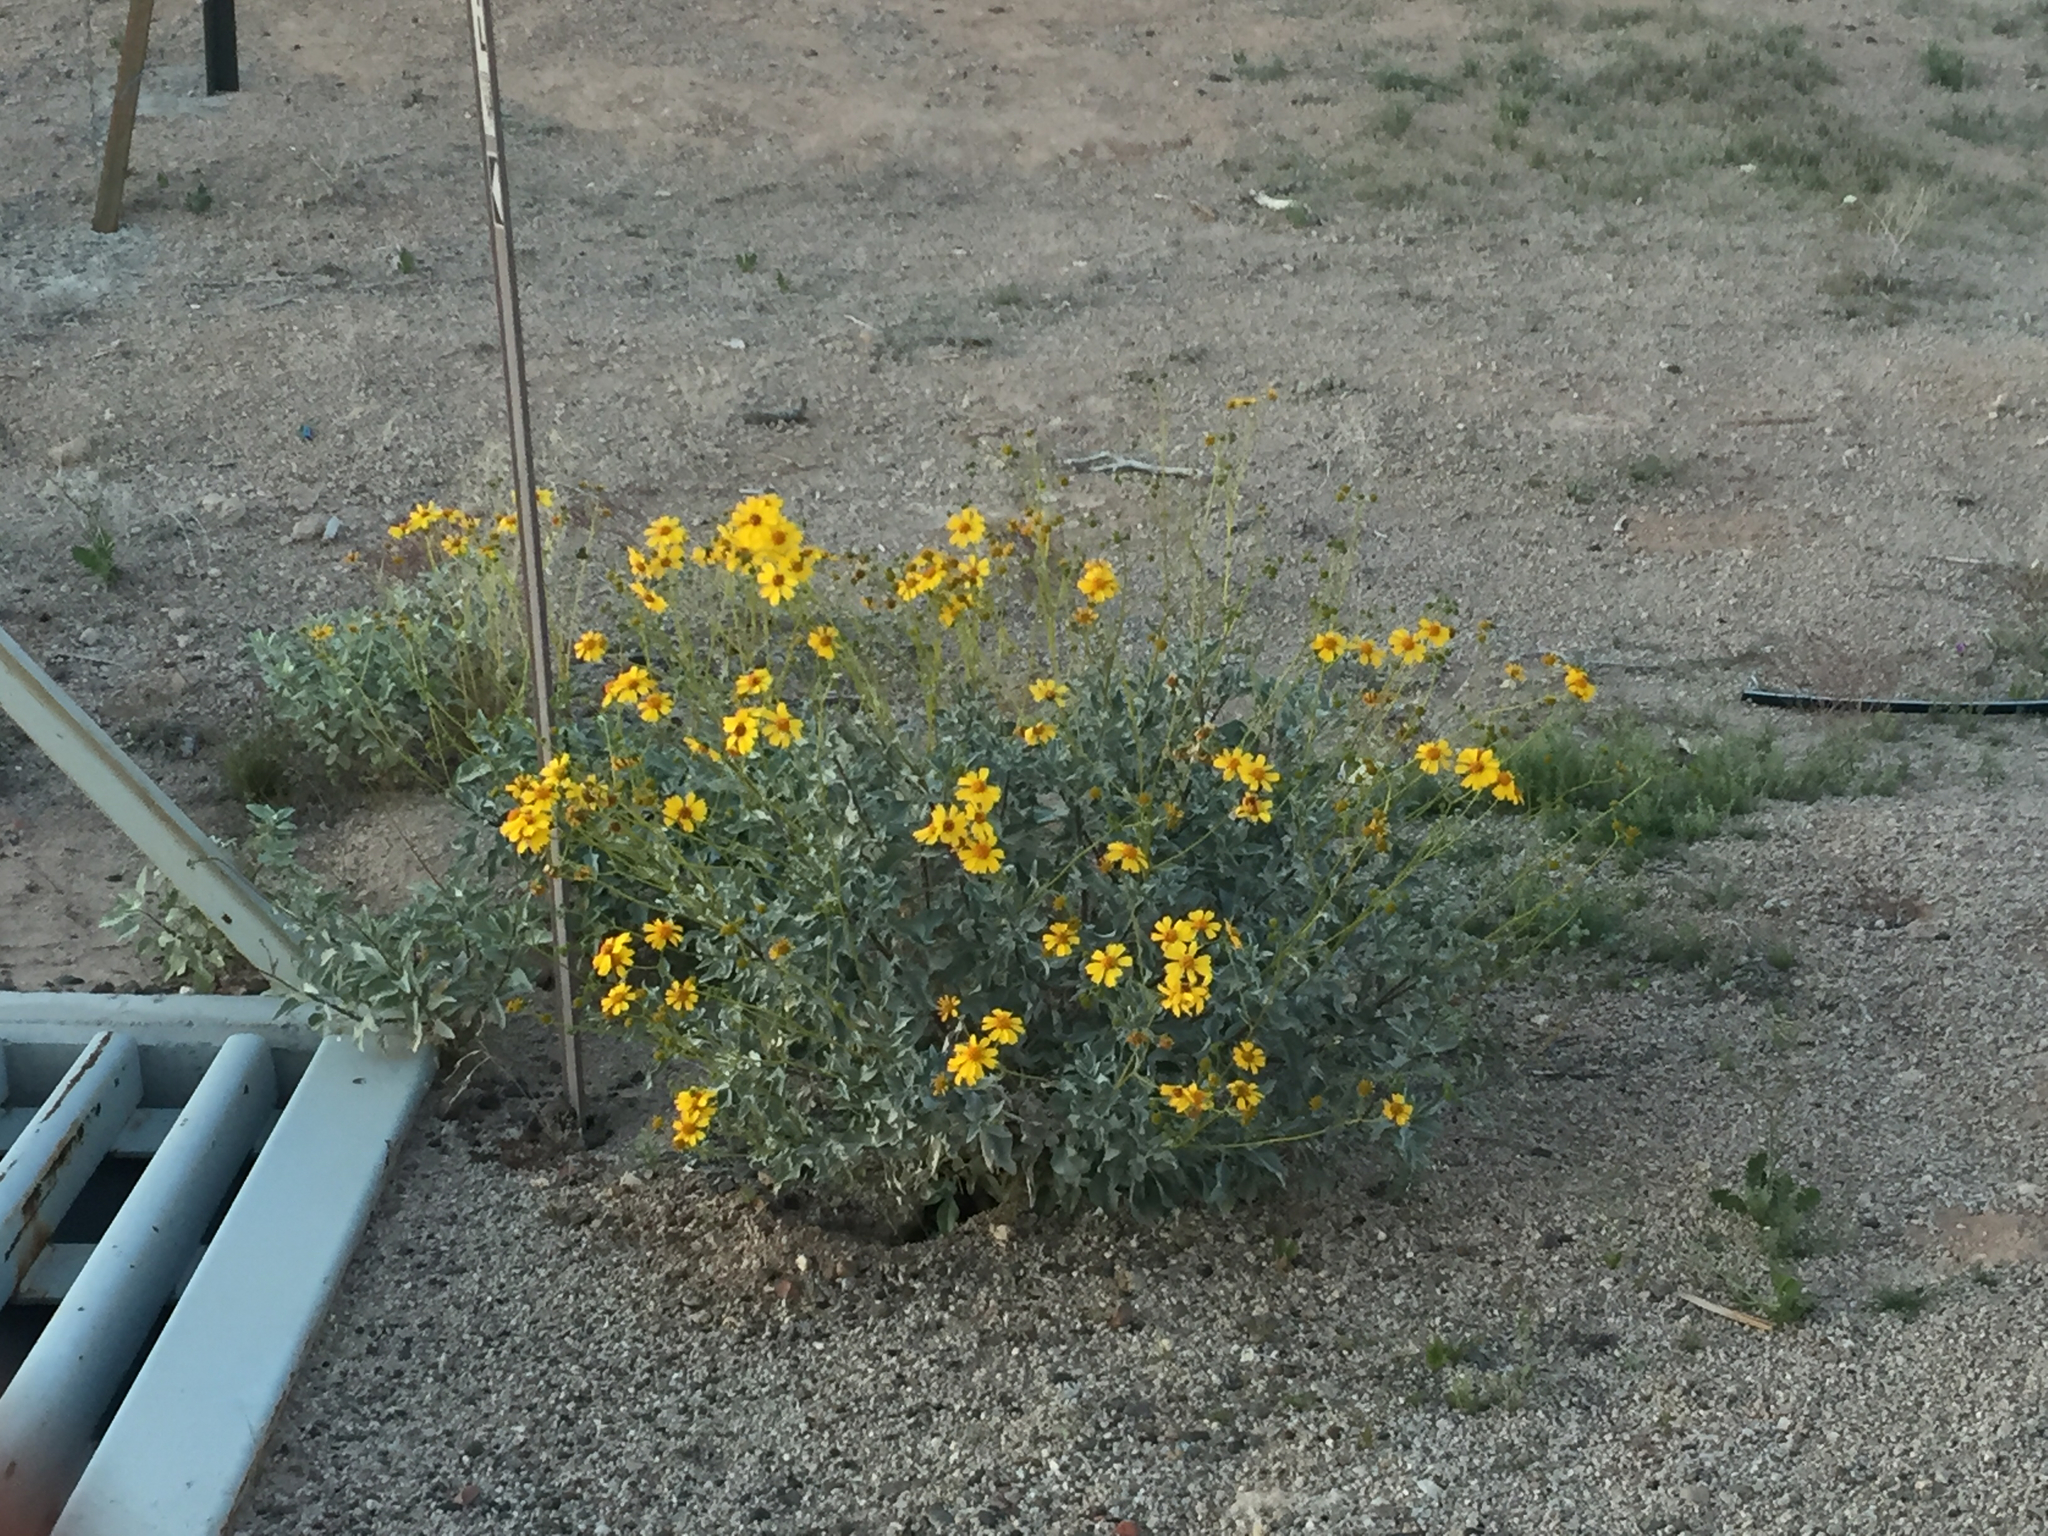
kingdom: Plantae
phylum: Tracheophyta
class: Magnoliopsida
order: Asterales
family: Asteraceae
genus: Encelia
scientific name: Encelia farinosa
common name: Brittlebush
